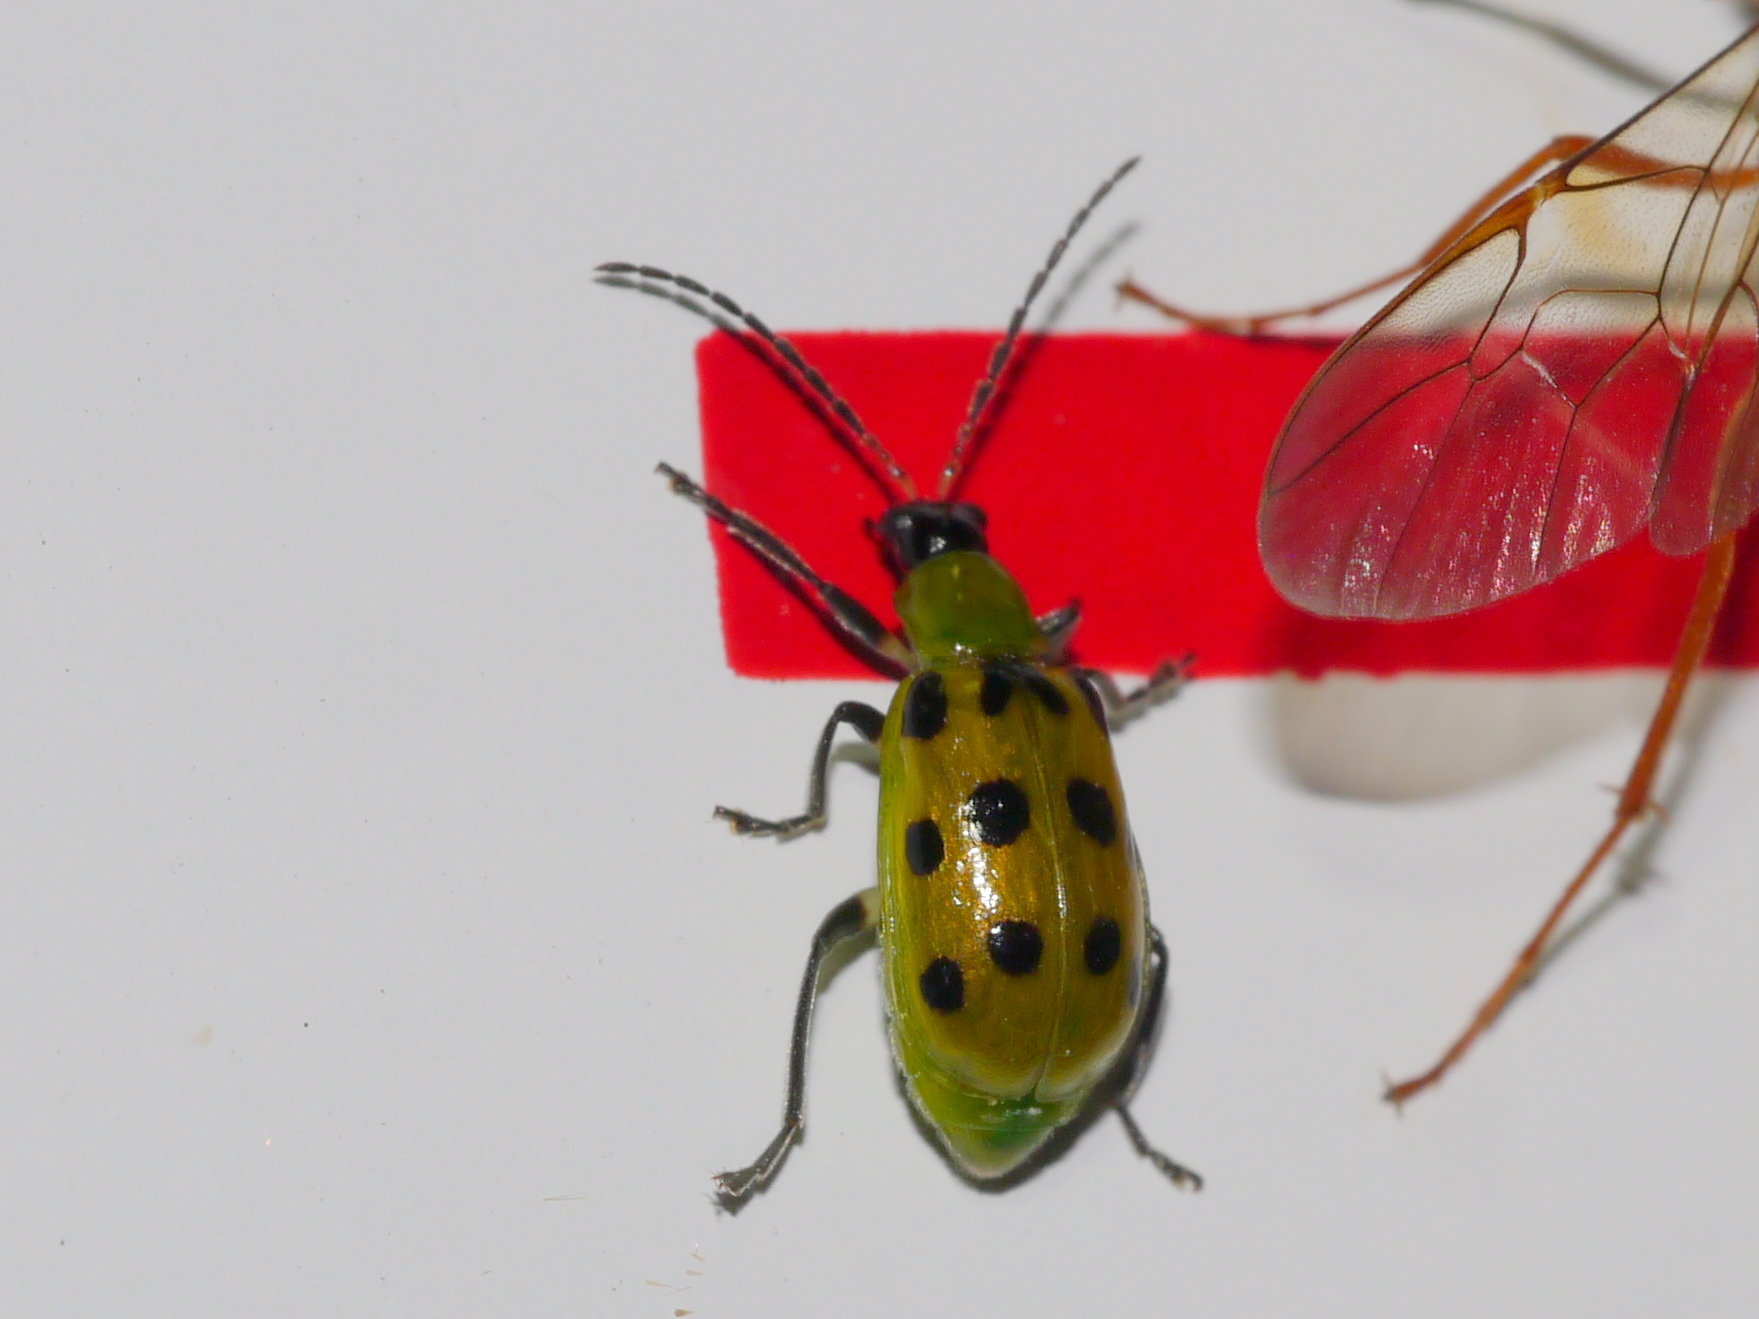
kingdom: Animalia
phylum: Arthropoda
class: Insecta
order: Coleoptera
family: Chrysomelidae
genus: Diabrotica
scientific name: Diabrotica undecimpunctata
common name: Spotted cucumber beetle
